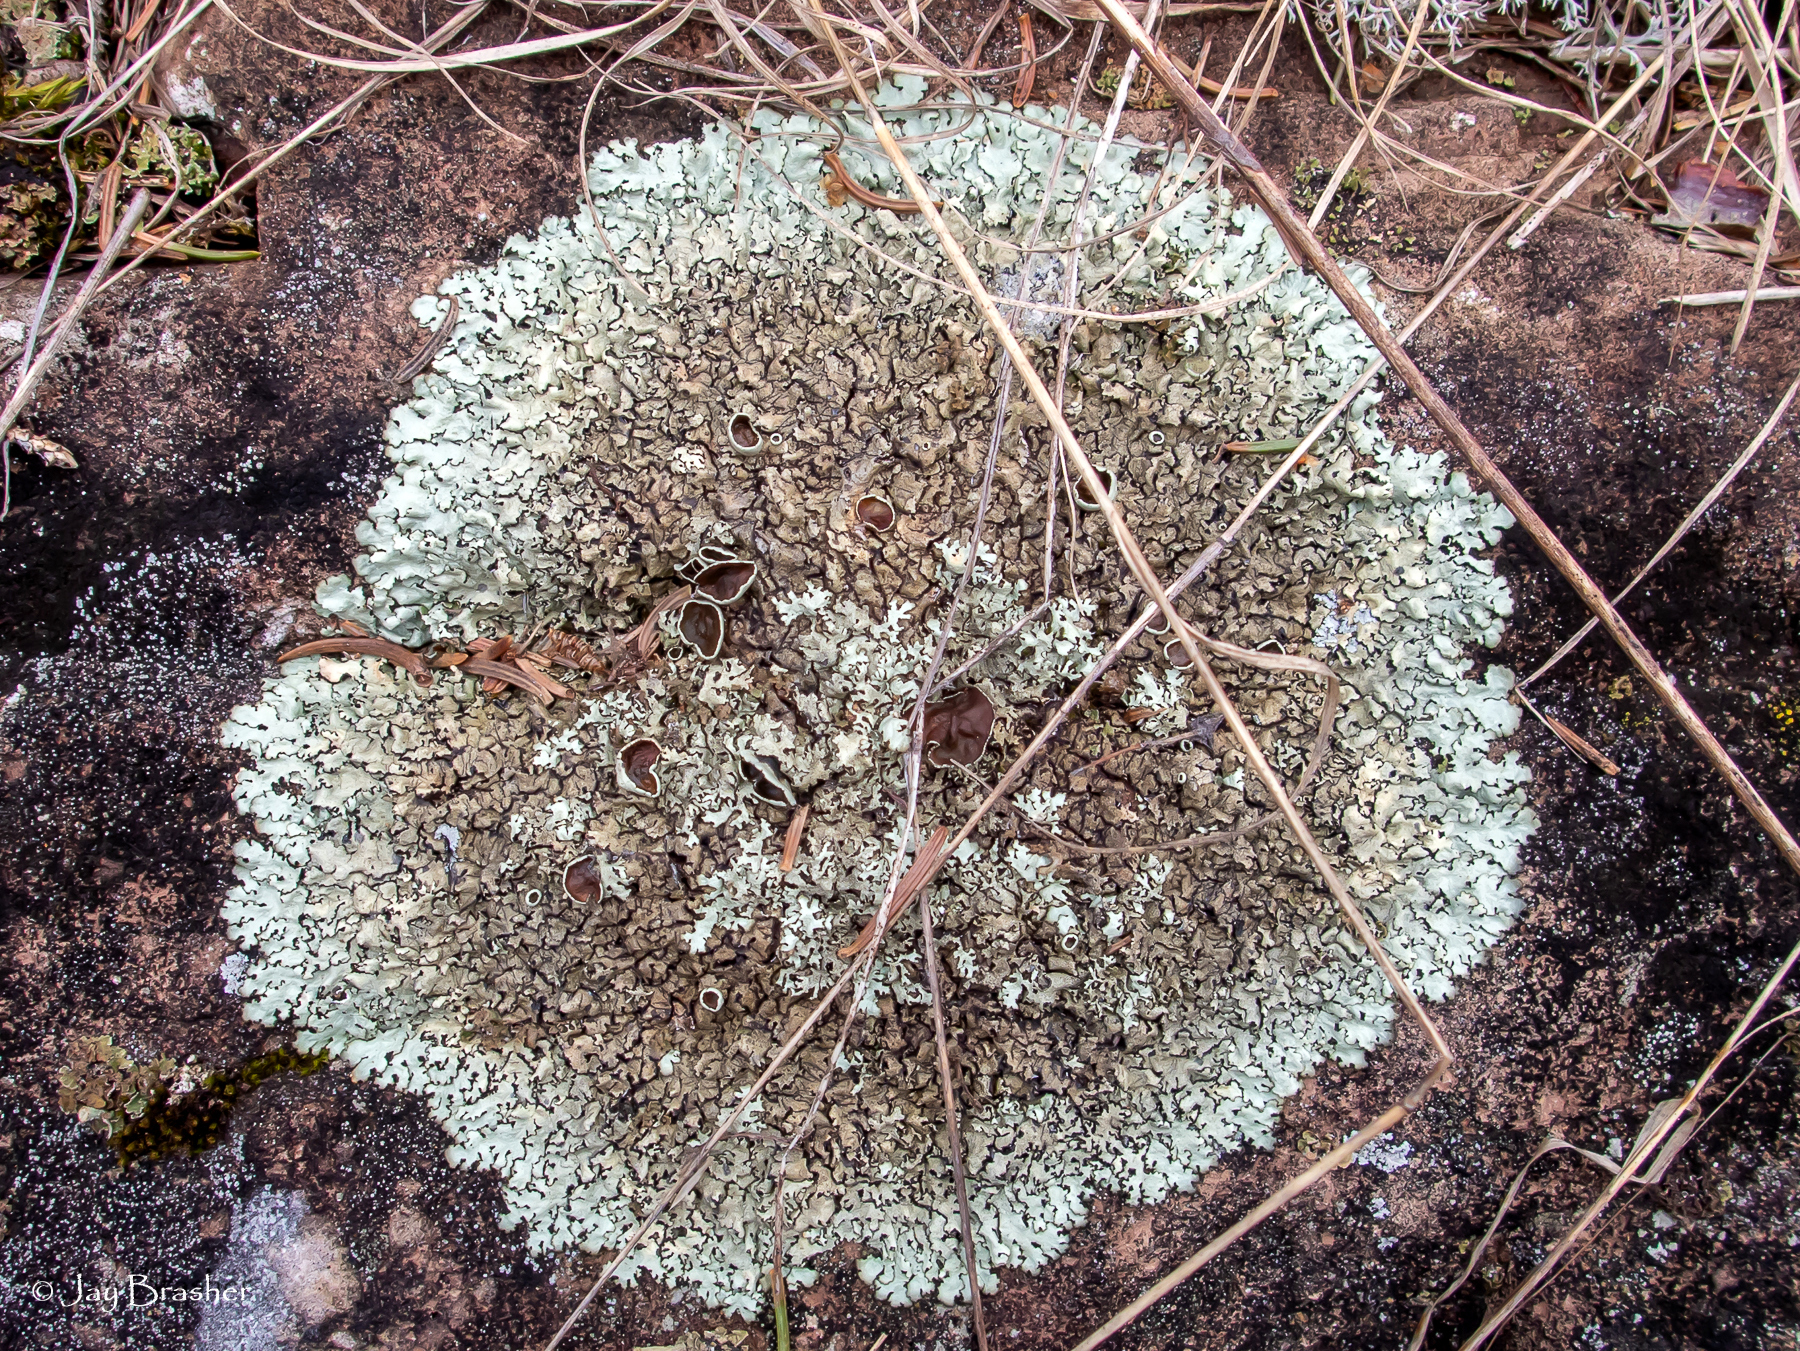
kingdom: Fungi
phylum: Ascomycota
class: Lecanoromycetes
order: Lecanorales
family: Parmeliaceae
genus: Xanthoparmelia
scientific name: Xanthoparmelia conspersa
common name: Peppered rock shield
